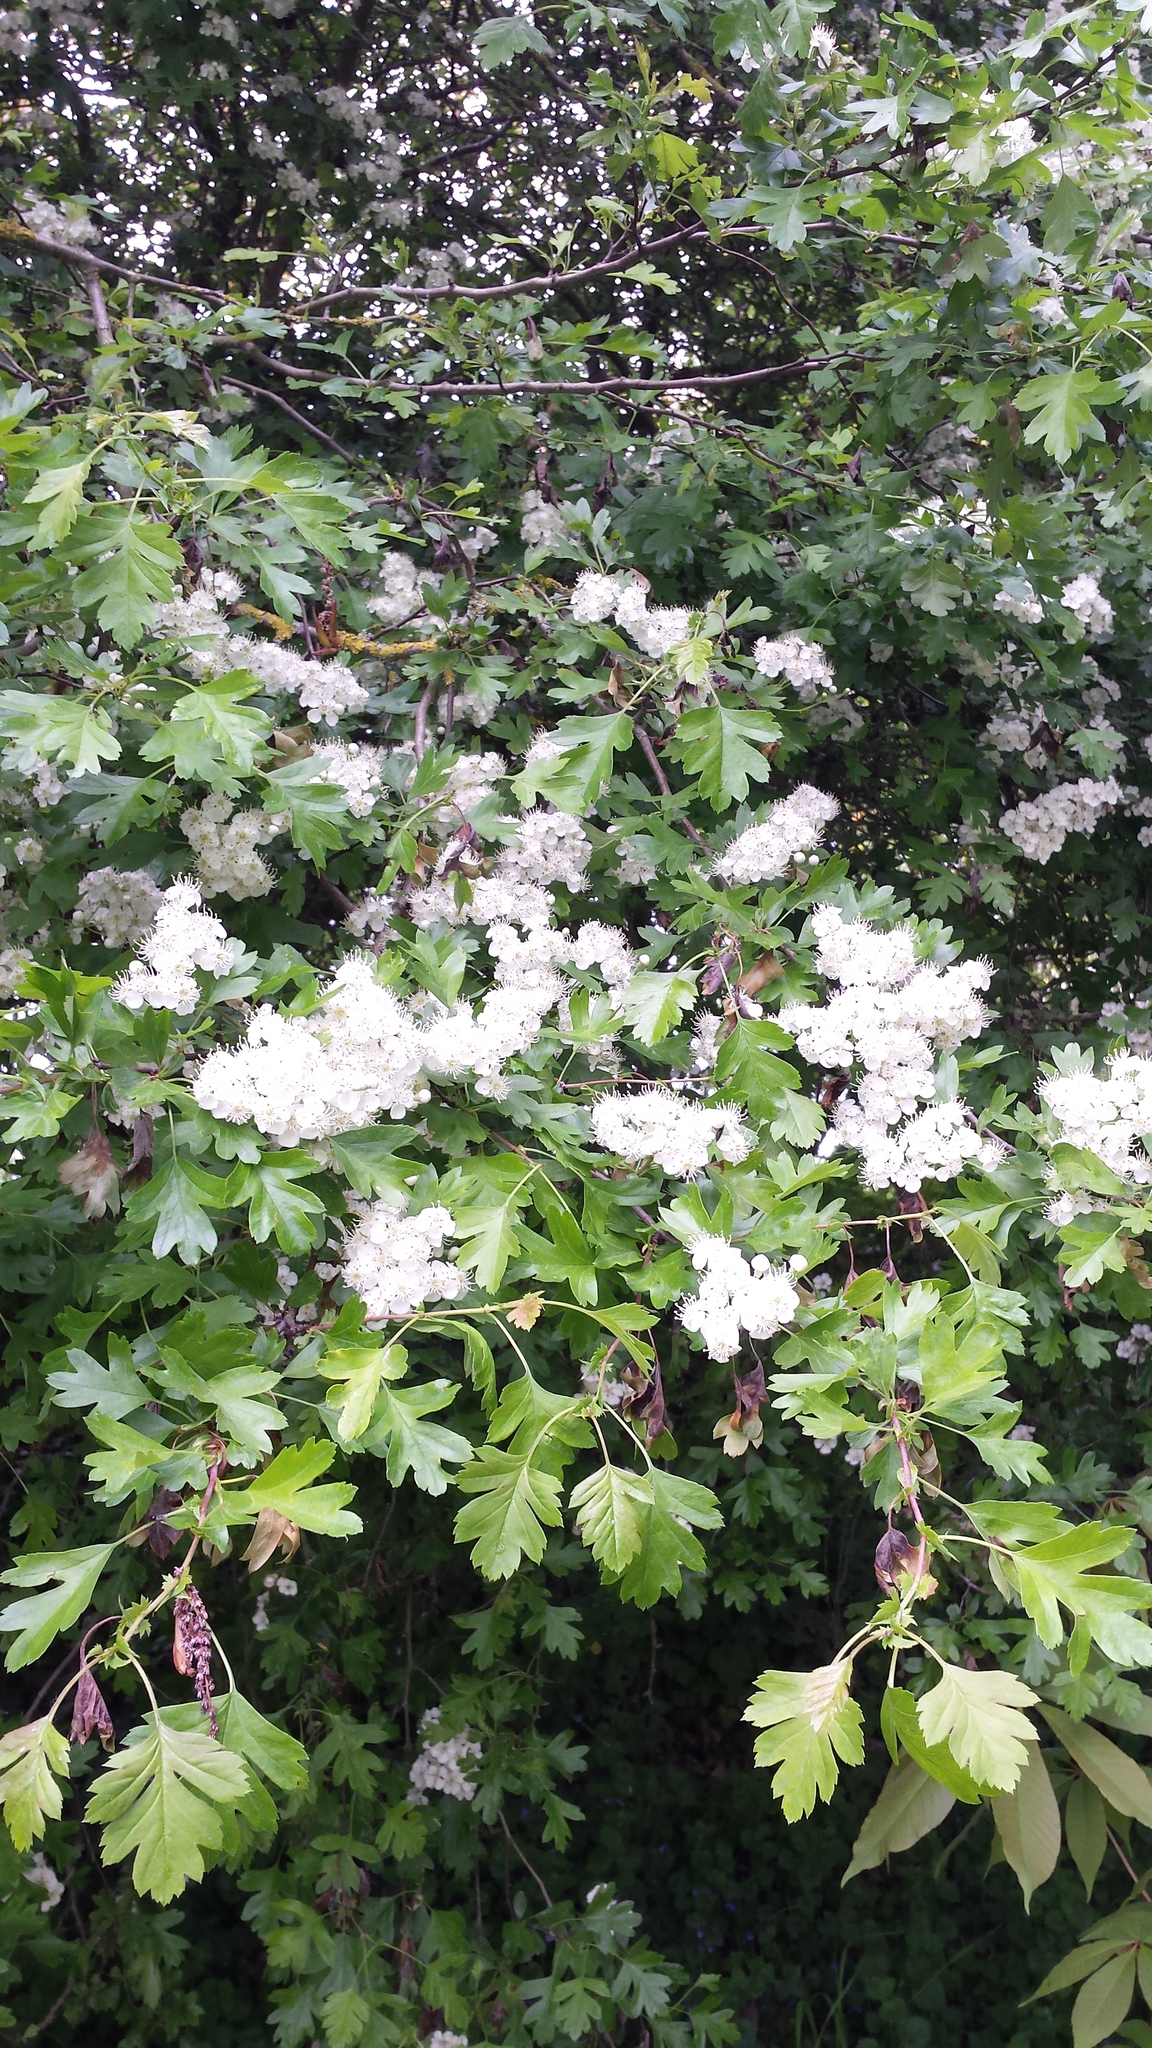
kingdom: Plantae
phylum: Tracheophyta
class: Magnoliopsida
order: Rosales
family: Rosaceae
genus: Crataegus
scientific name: Crataegus monogyna
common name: Hawthorn
